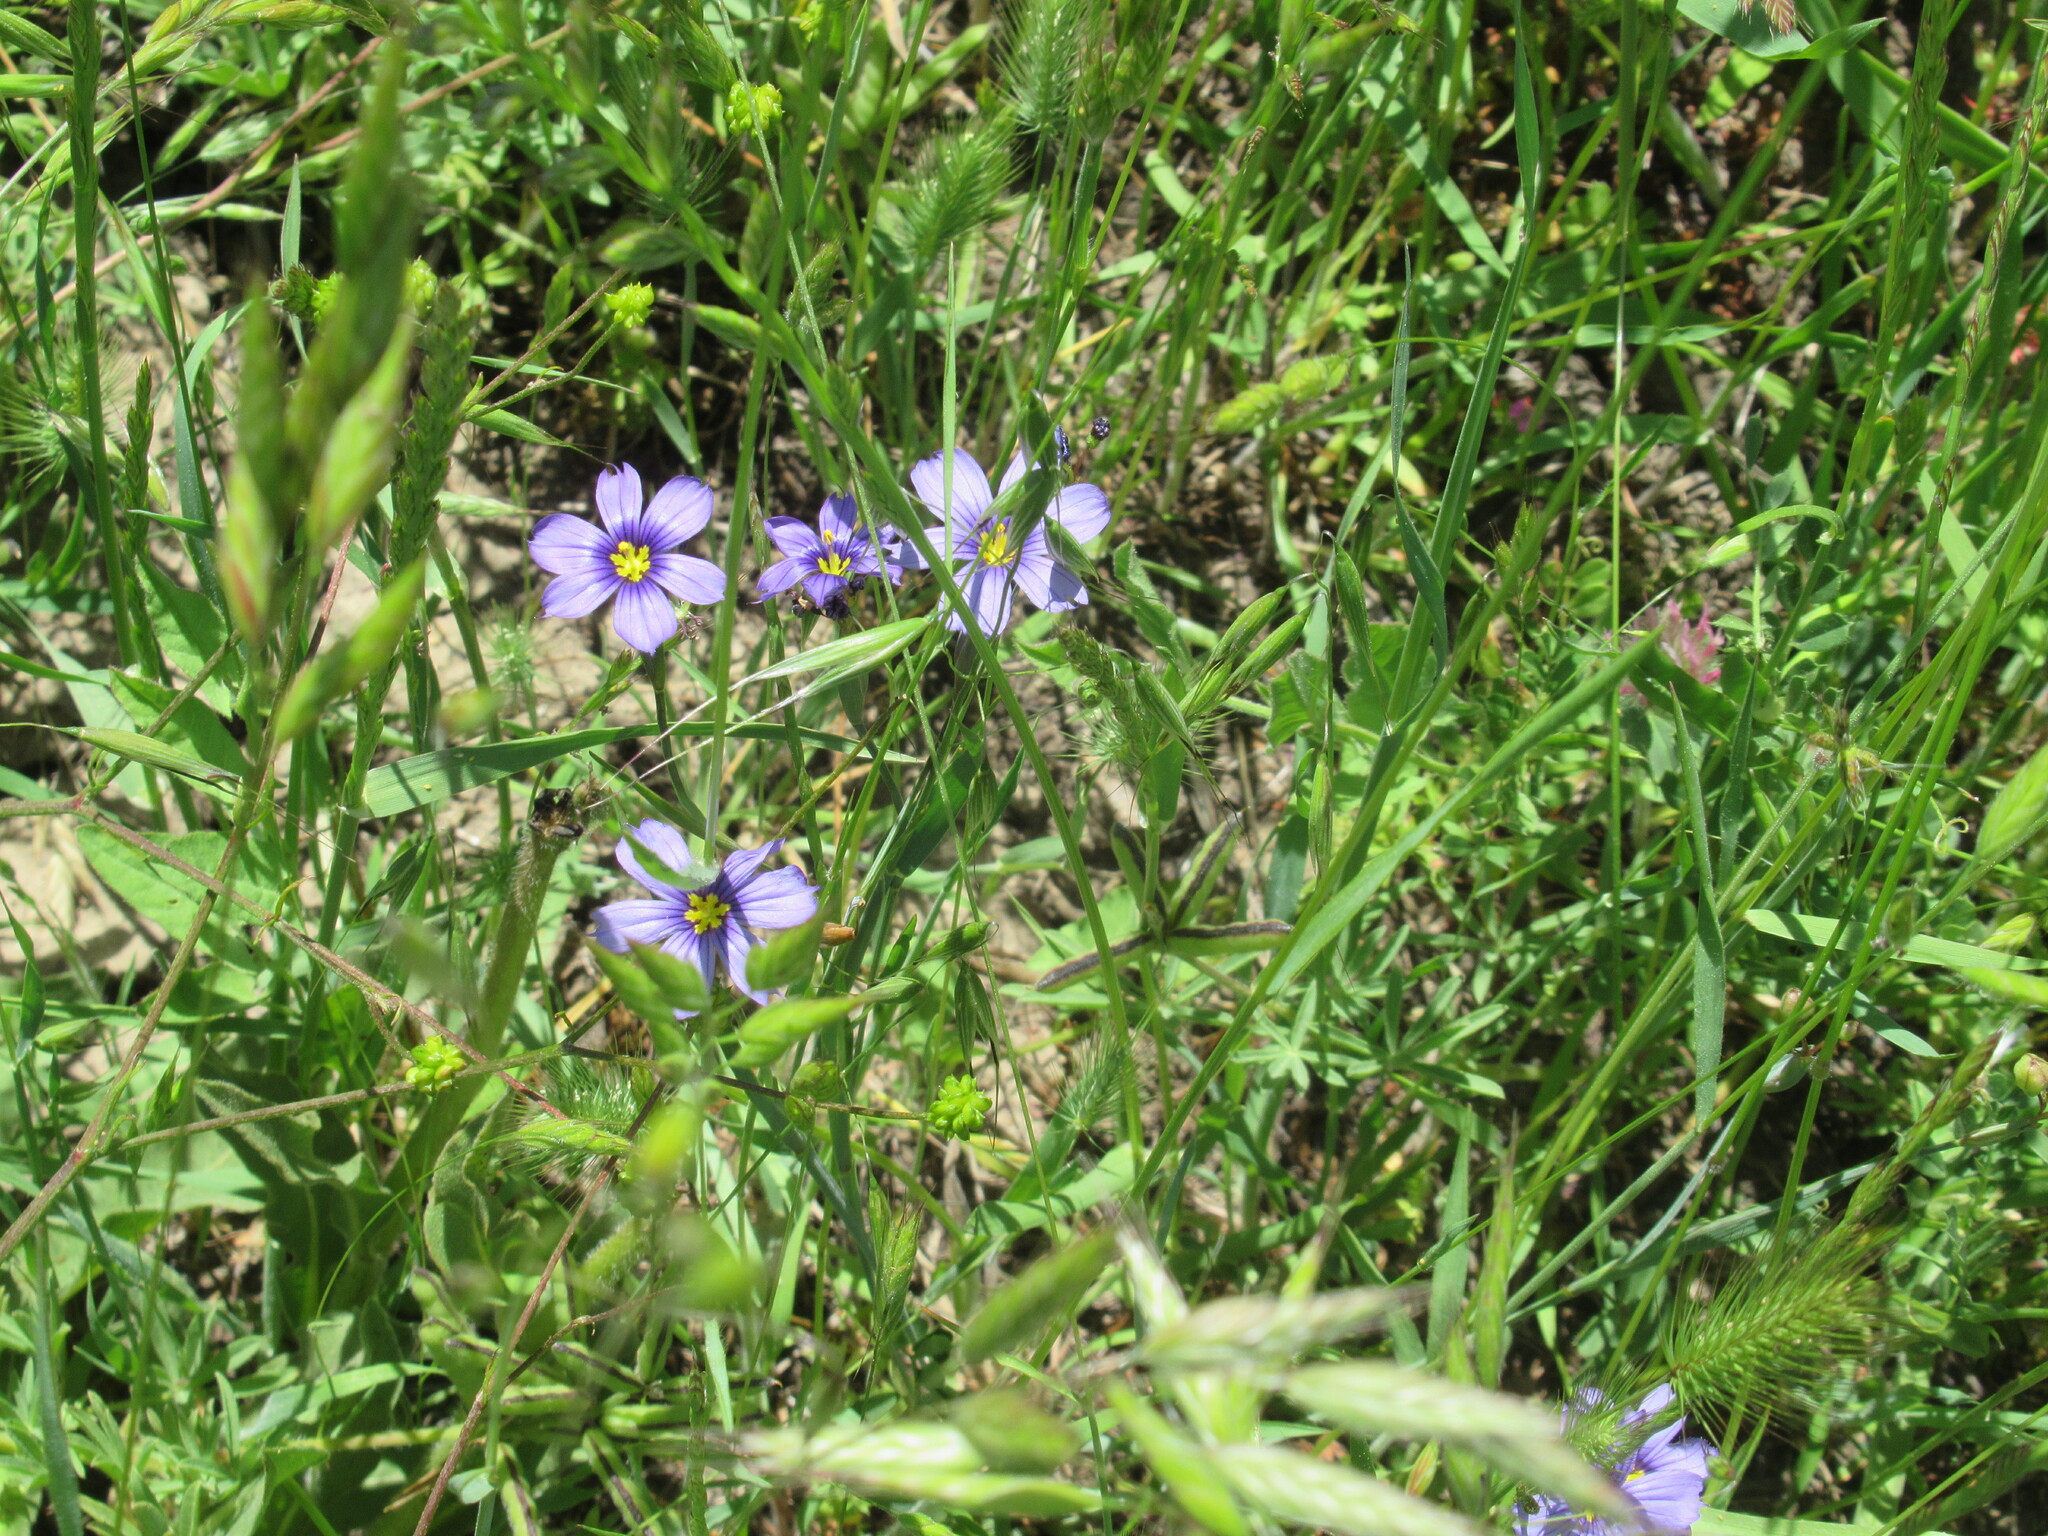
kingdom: Plantae
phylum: Tracheophyta
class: Liliopsida
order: Asparagales
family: Iridaceae
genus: Sisyrinchium
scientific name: Sisyrinchium bellum
